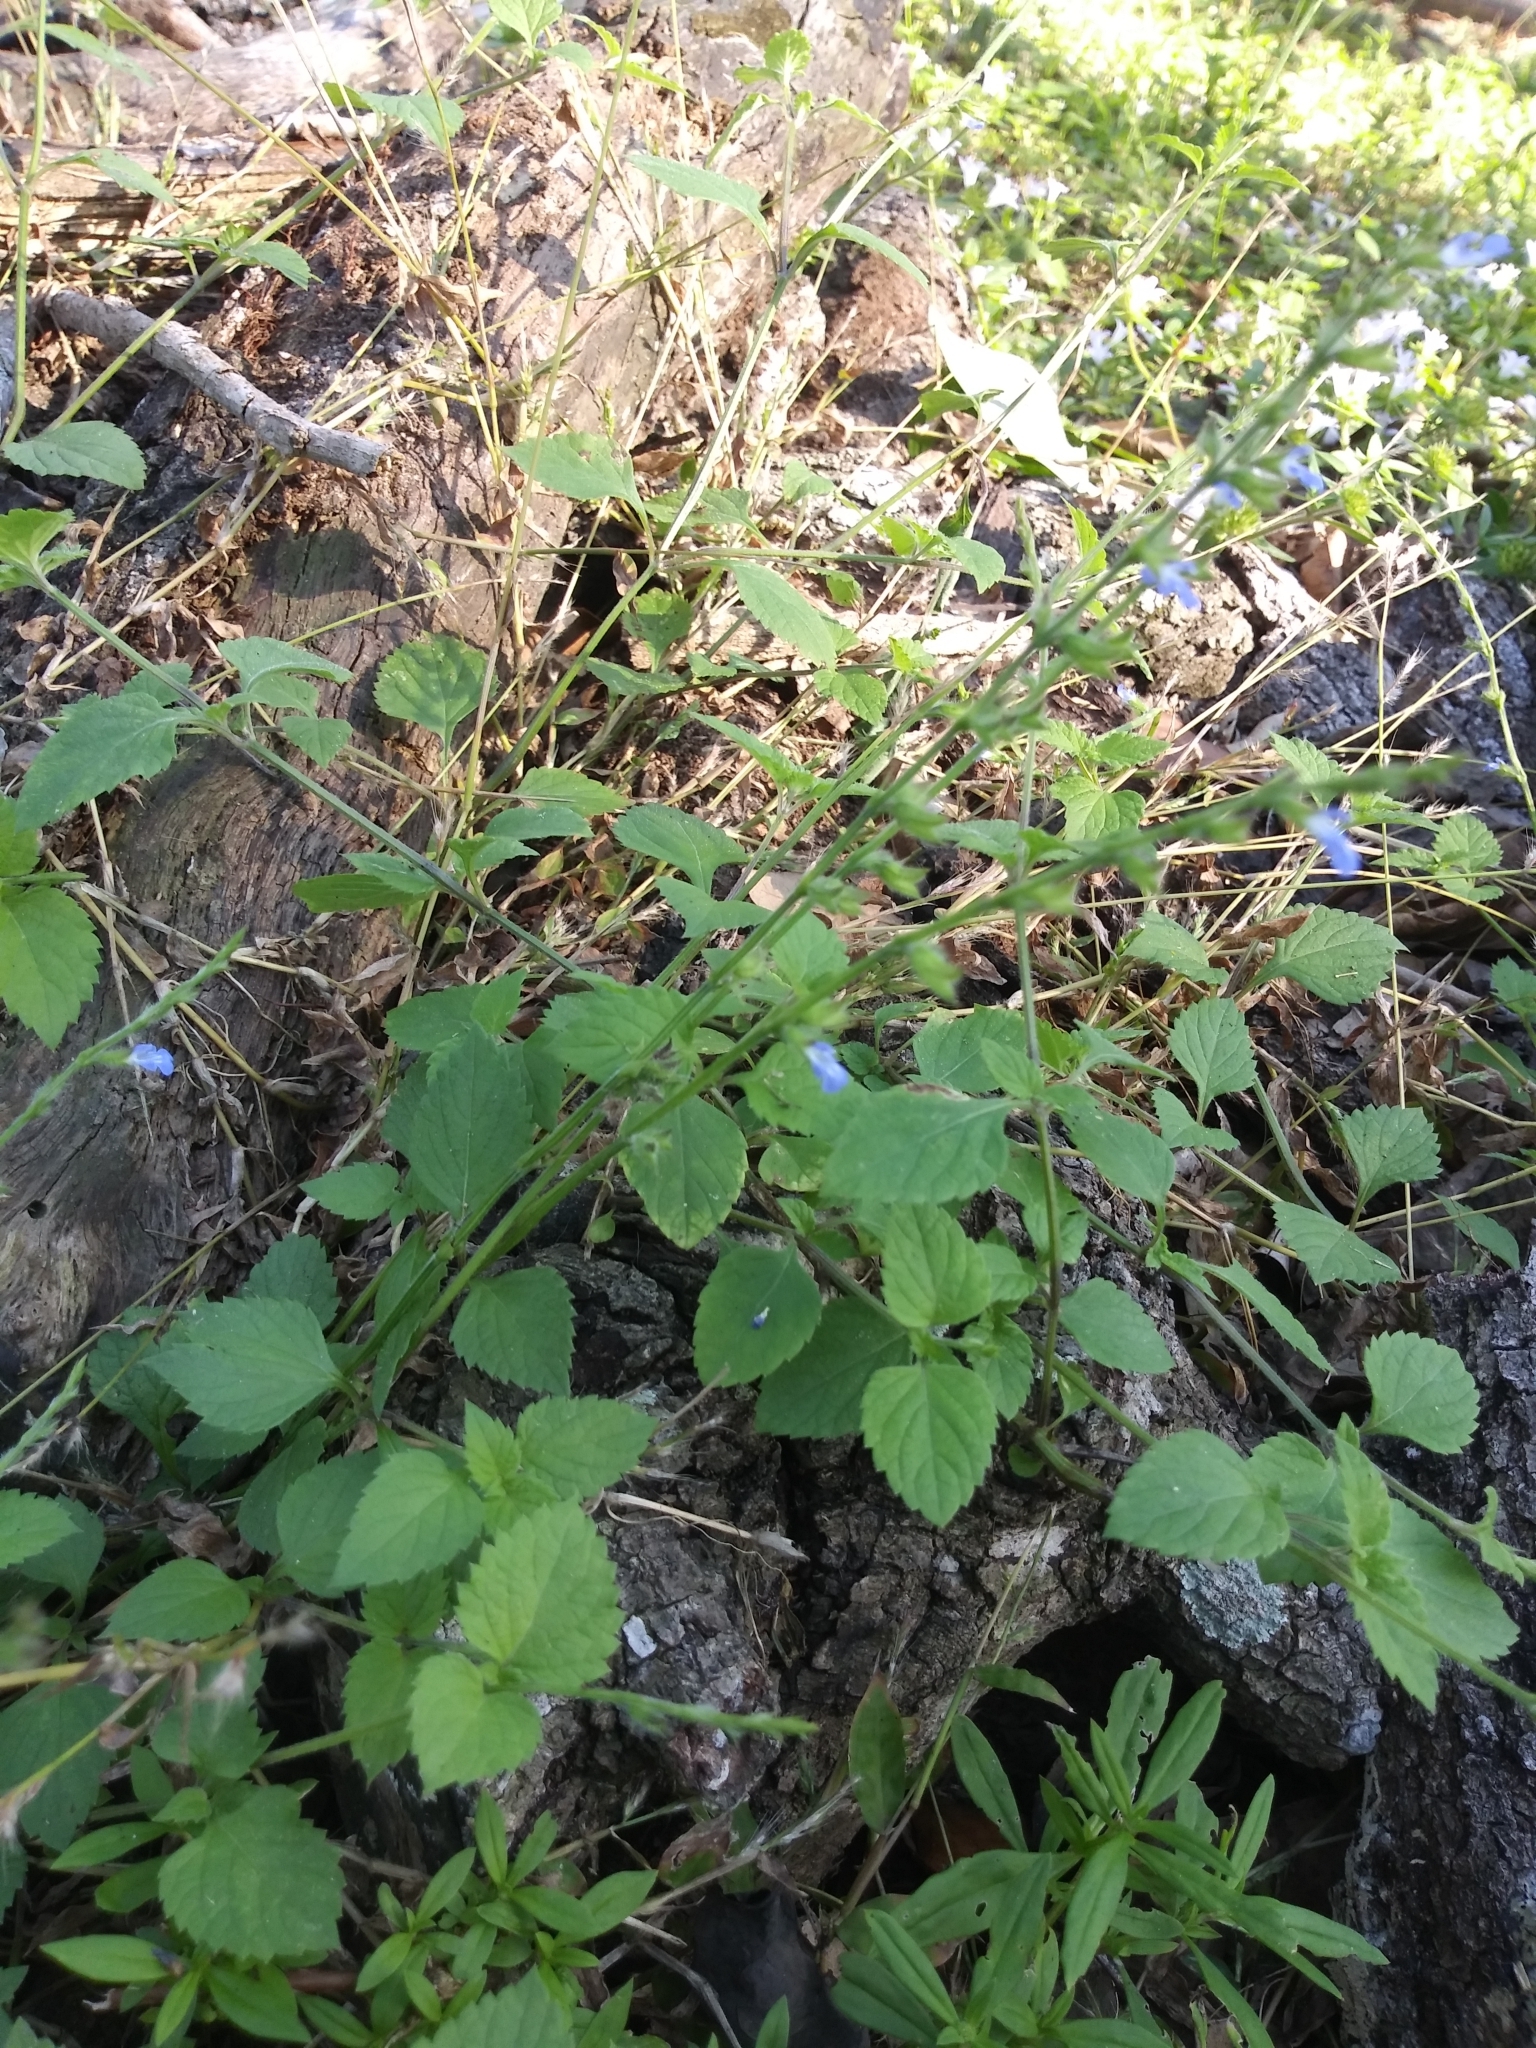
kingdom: Plantae
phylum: Tracheophyta
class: Magnoliopsida
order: Lamiales
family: Lamiaceae
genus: Salvia
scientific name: Salvia misella
